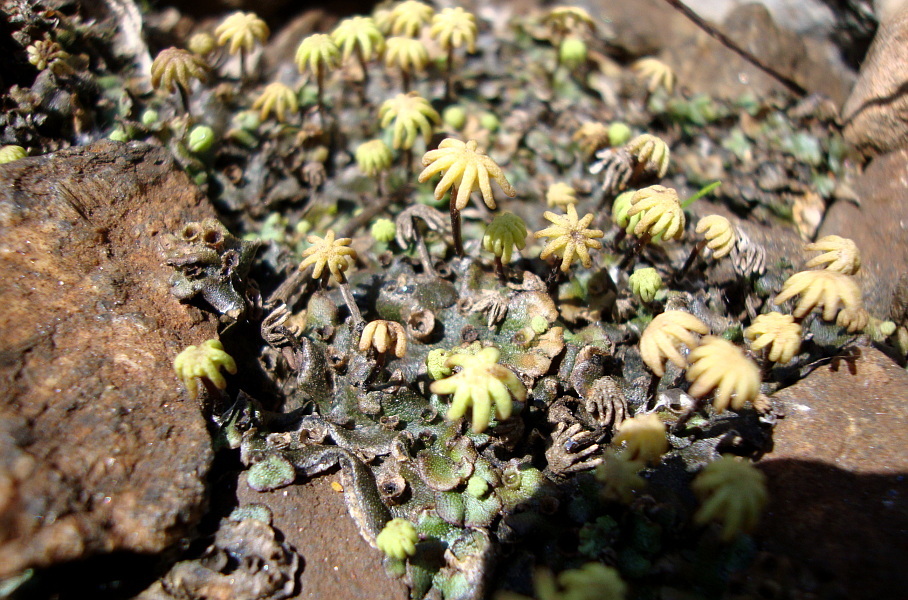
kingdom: Plantae
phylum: Marchantiophyta
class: Marchantiopsida
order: Marchantiales
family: Marchantiaceae
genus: Marchantia
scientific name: Marchantia polymorpha
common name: Common liverwort
